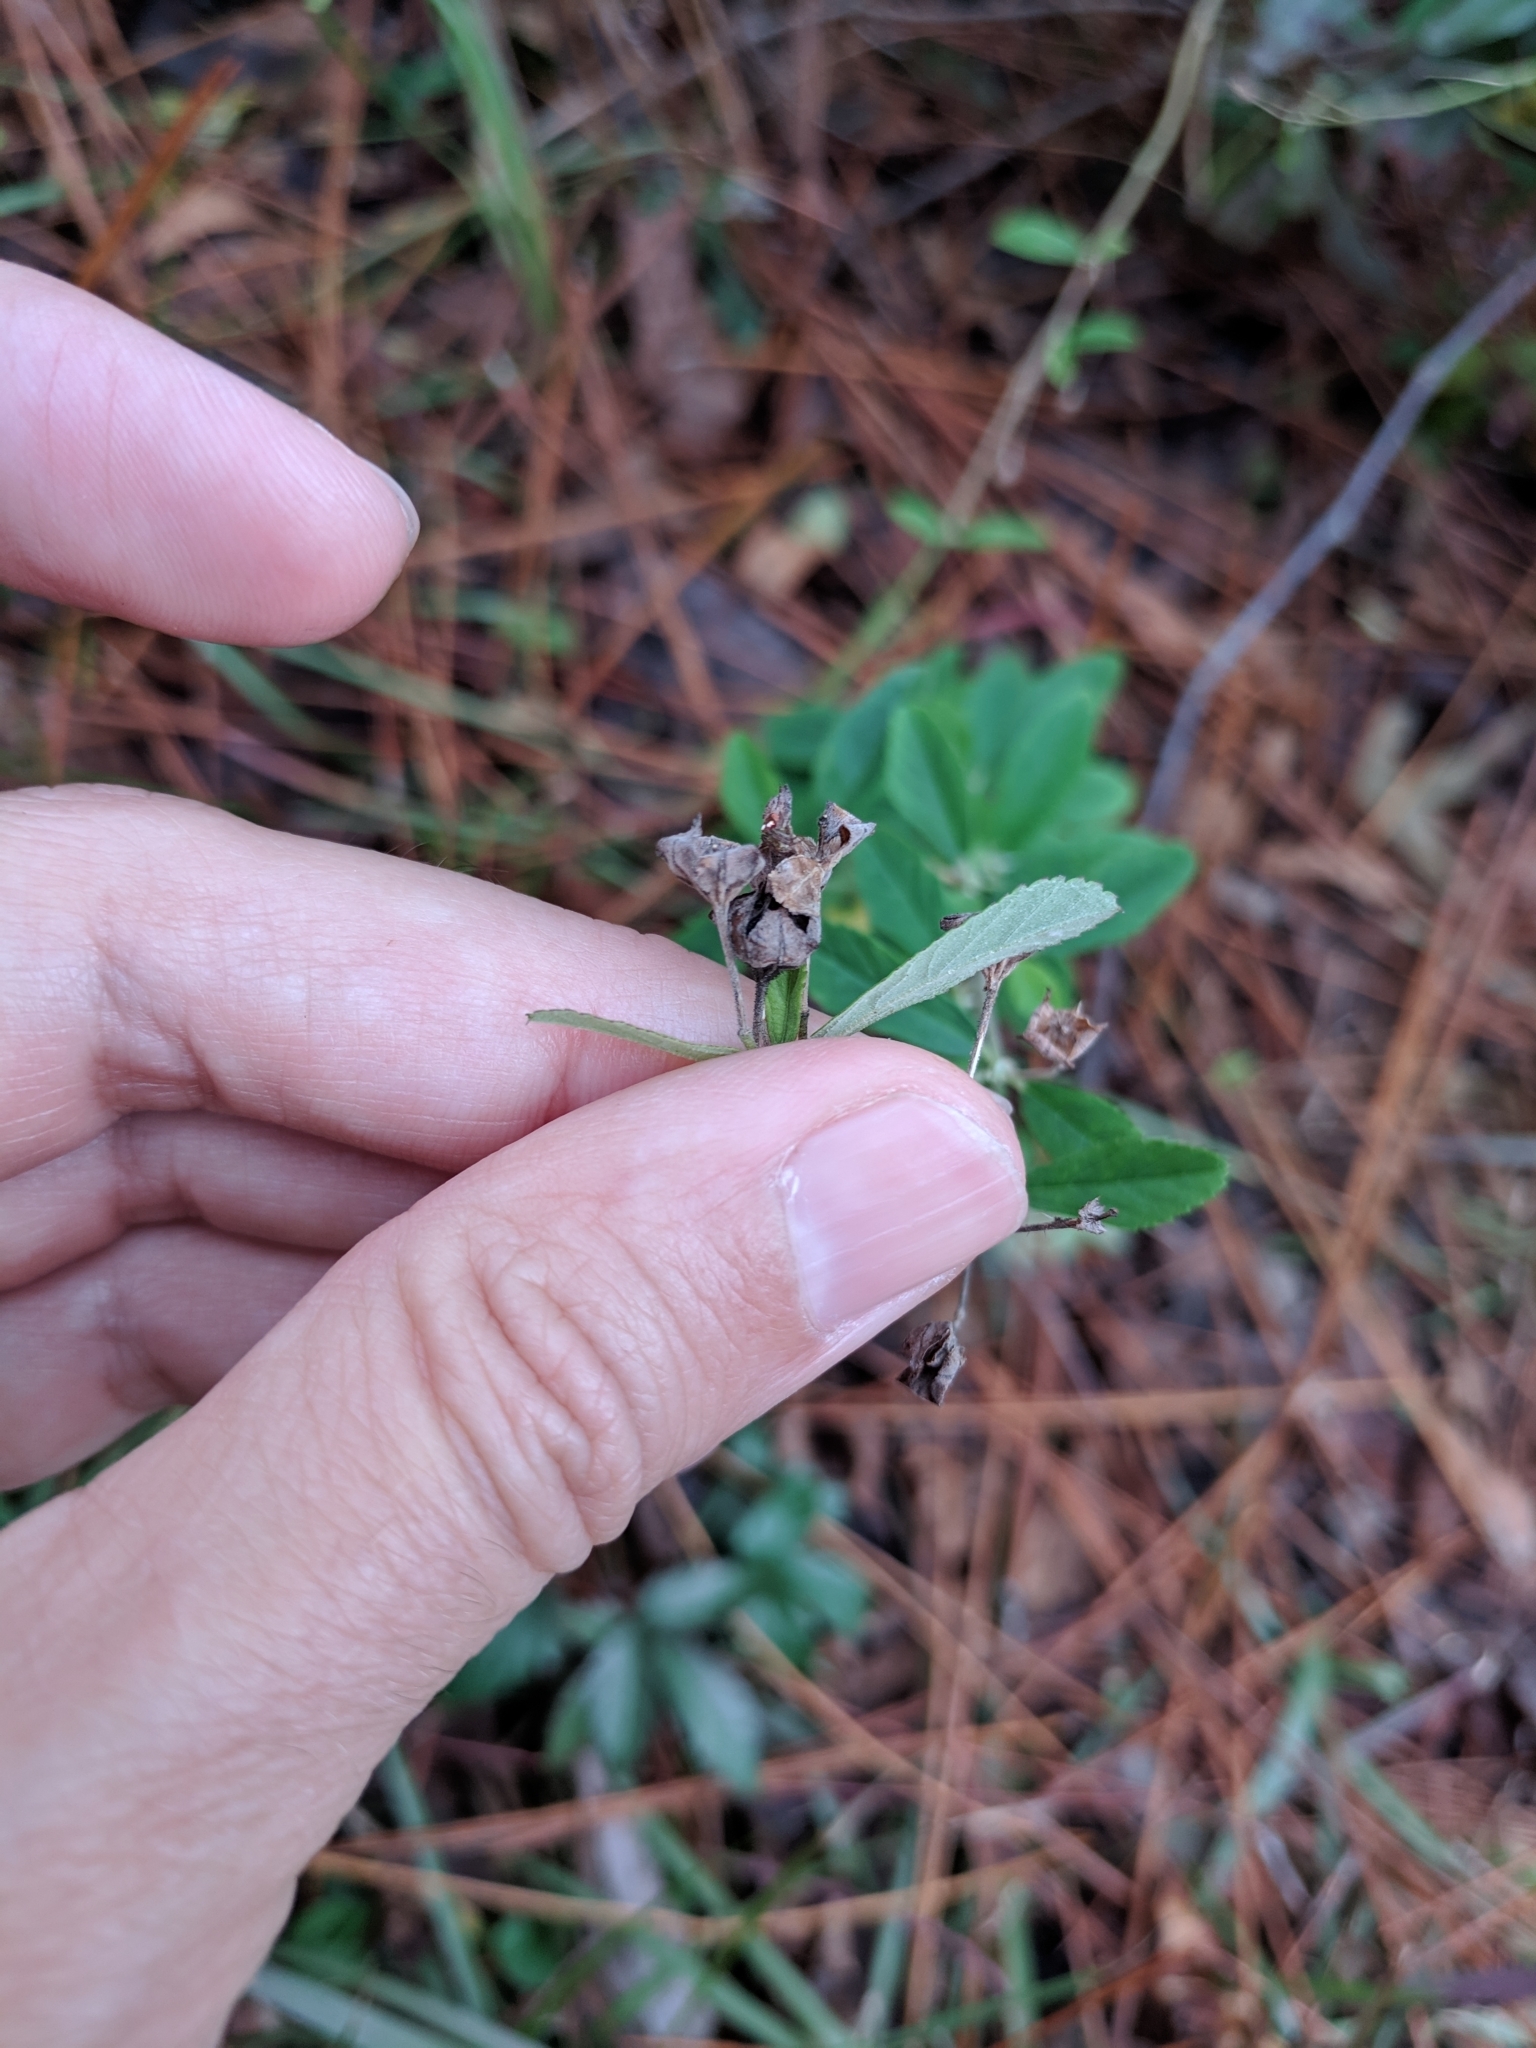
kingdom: Plantae
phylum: Tracheophyta
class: Magnoliopsida
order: Malvales
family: Malvaceae
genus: Sida
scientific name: Sida rhombifolia
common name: Queensland-hemp
